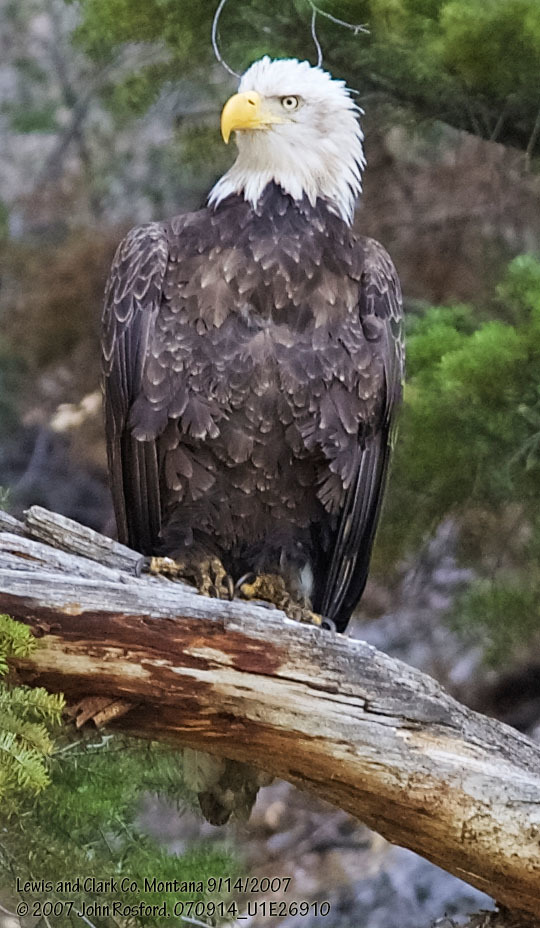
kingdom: Animalia
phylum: Chordata
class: Aves
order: Accipitriformes
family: Accipitridae
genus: Haliaeetus
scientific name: Haliaeetus leucocephalus
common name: Bald eagle
